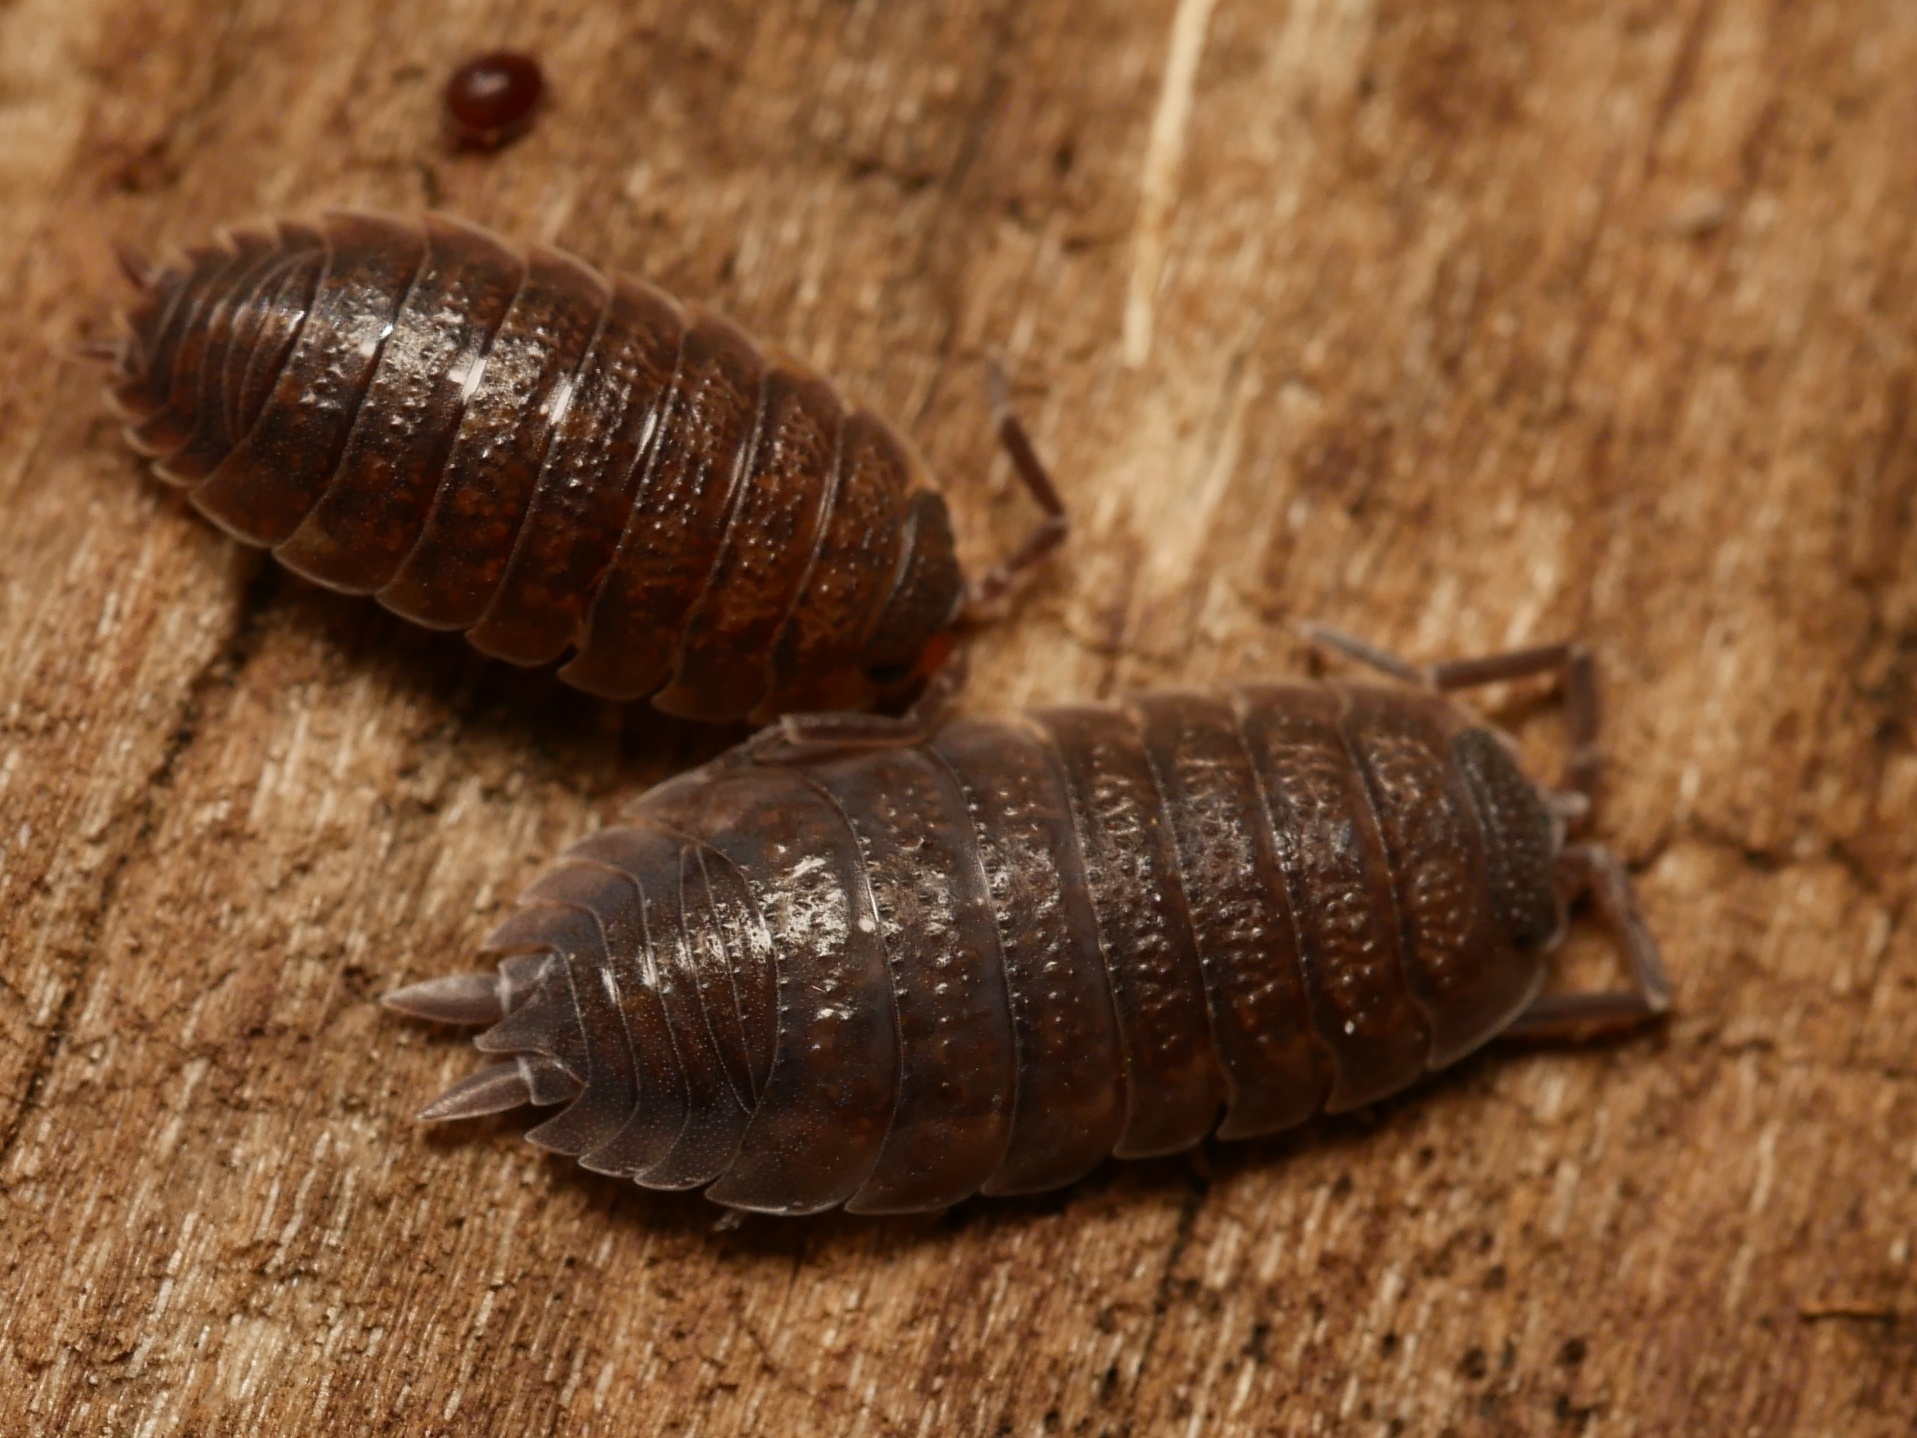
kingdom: Animalia
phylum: Arthropoda
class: Malacostraca
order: Isopoda
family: Porcellionidae
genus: Porcellio
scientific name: Porcellio scaber
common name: Common rough woodlouse
